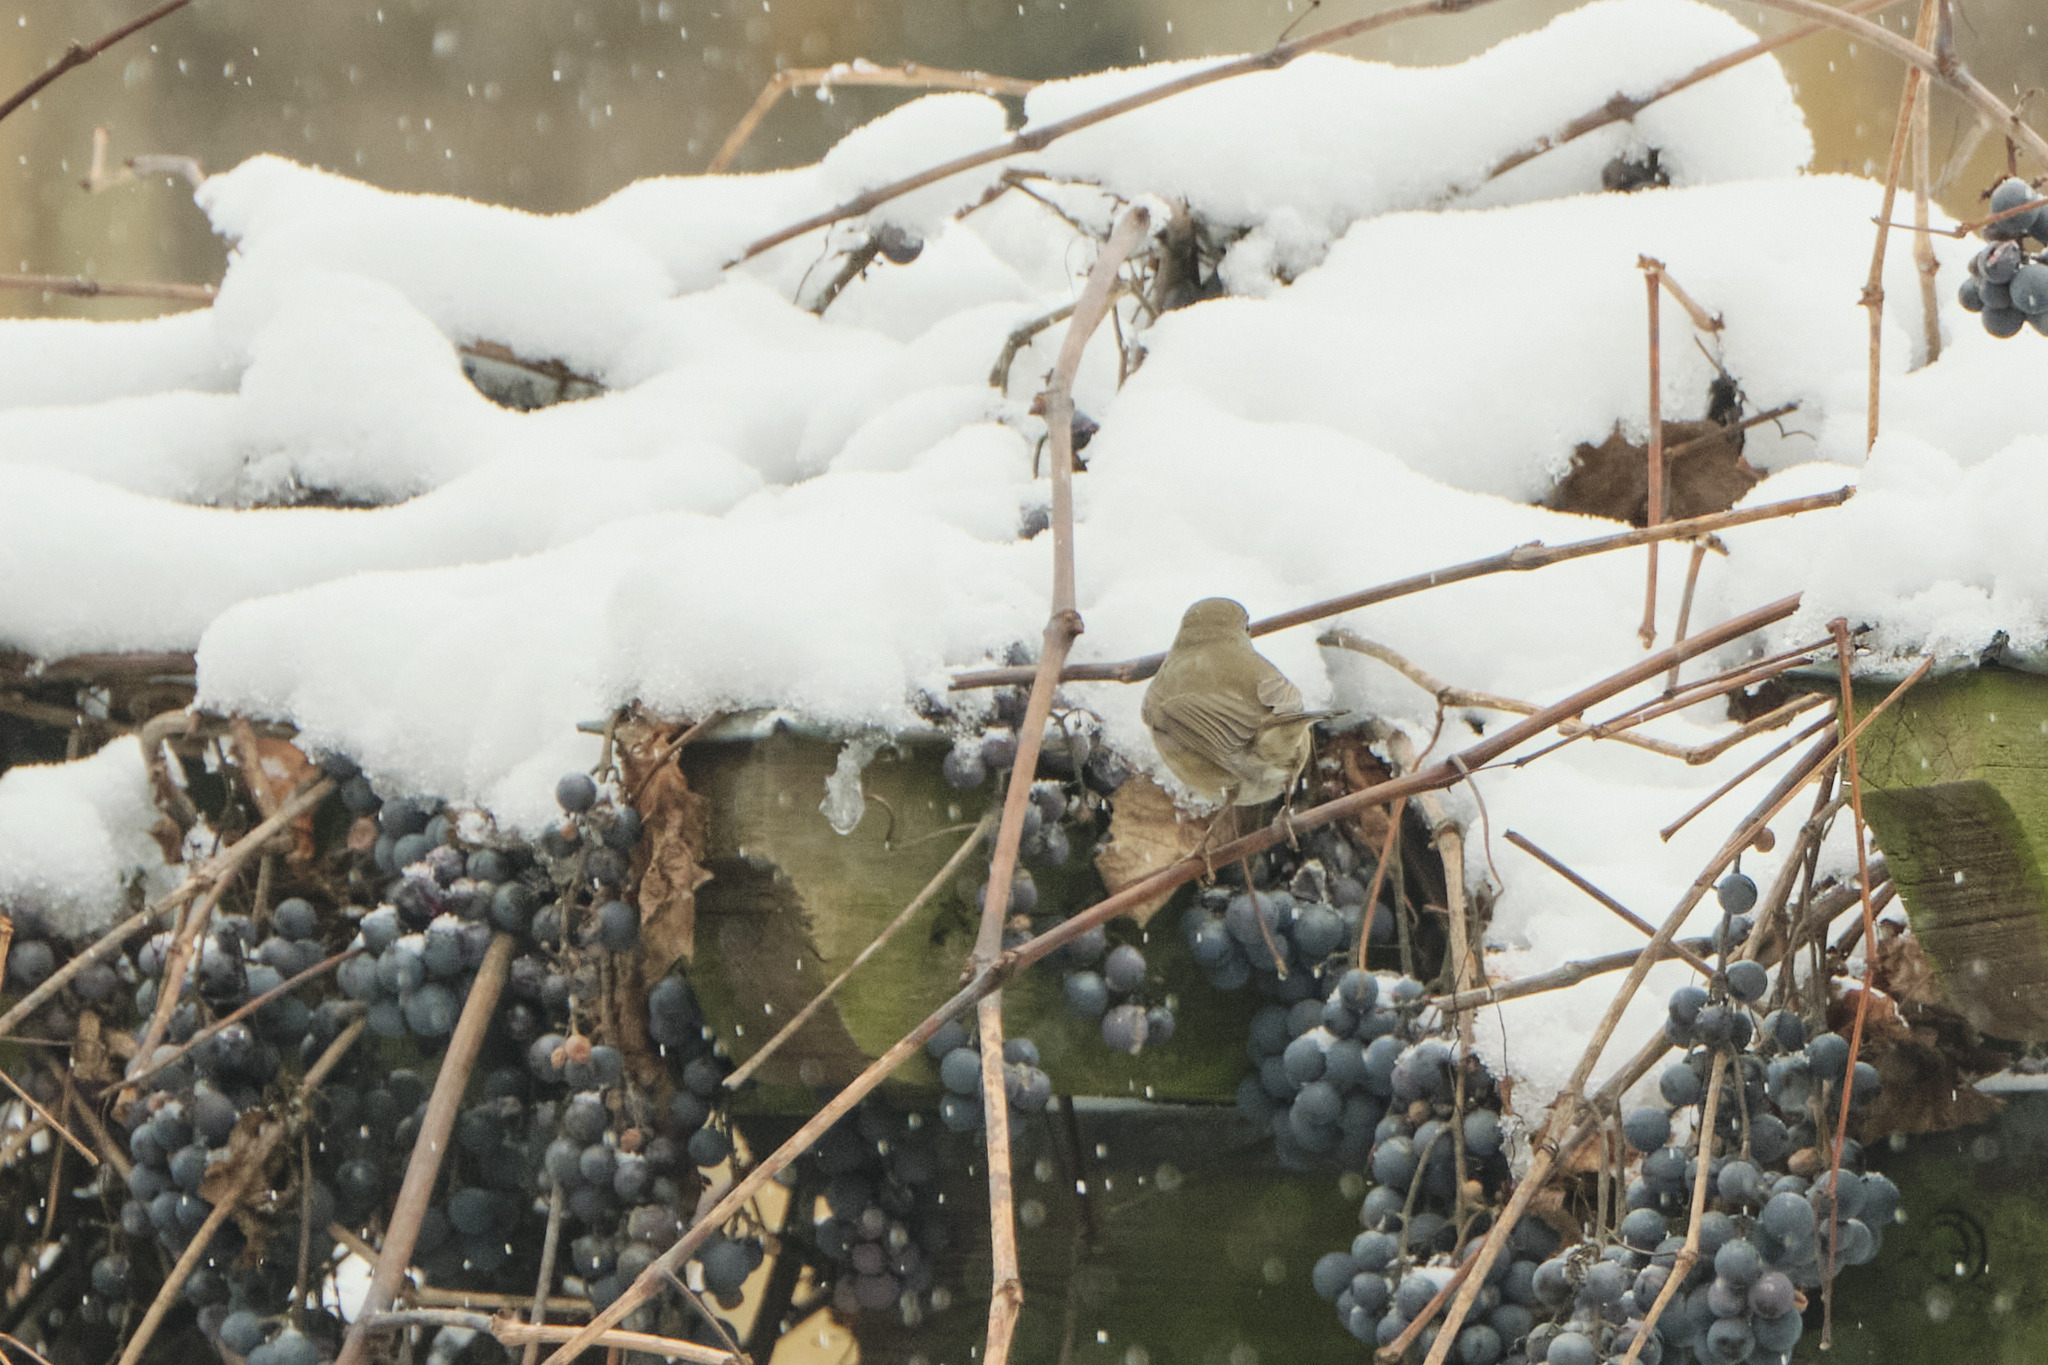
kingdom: Animalia
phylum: Chordata
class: Aves
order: Passeriformes
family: Muscicapidae
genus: Erithacus
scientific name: Erithacus rubecula
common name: European robin
